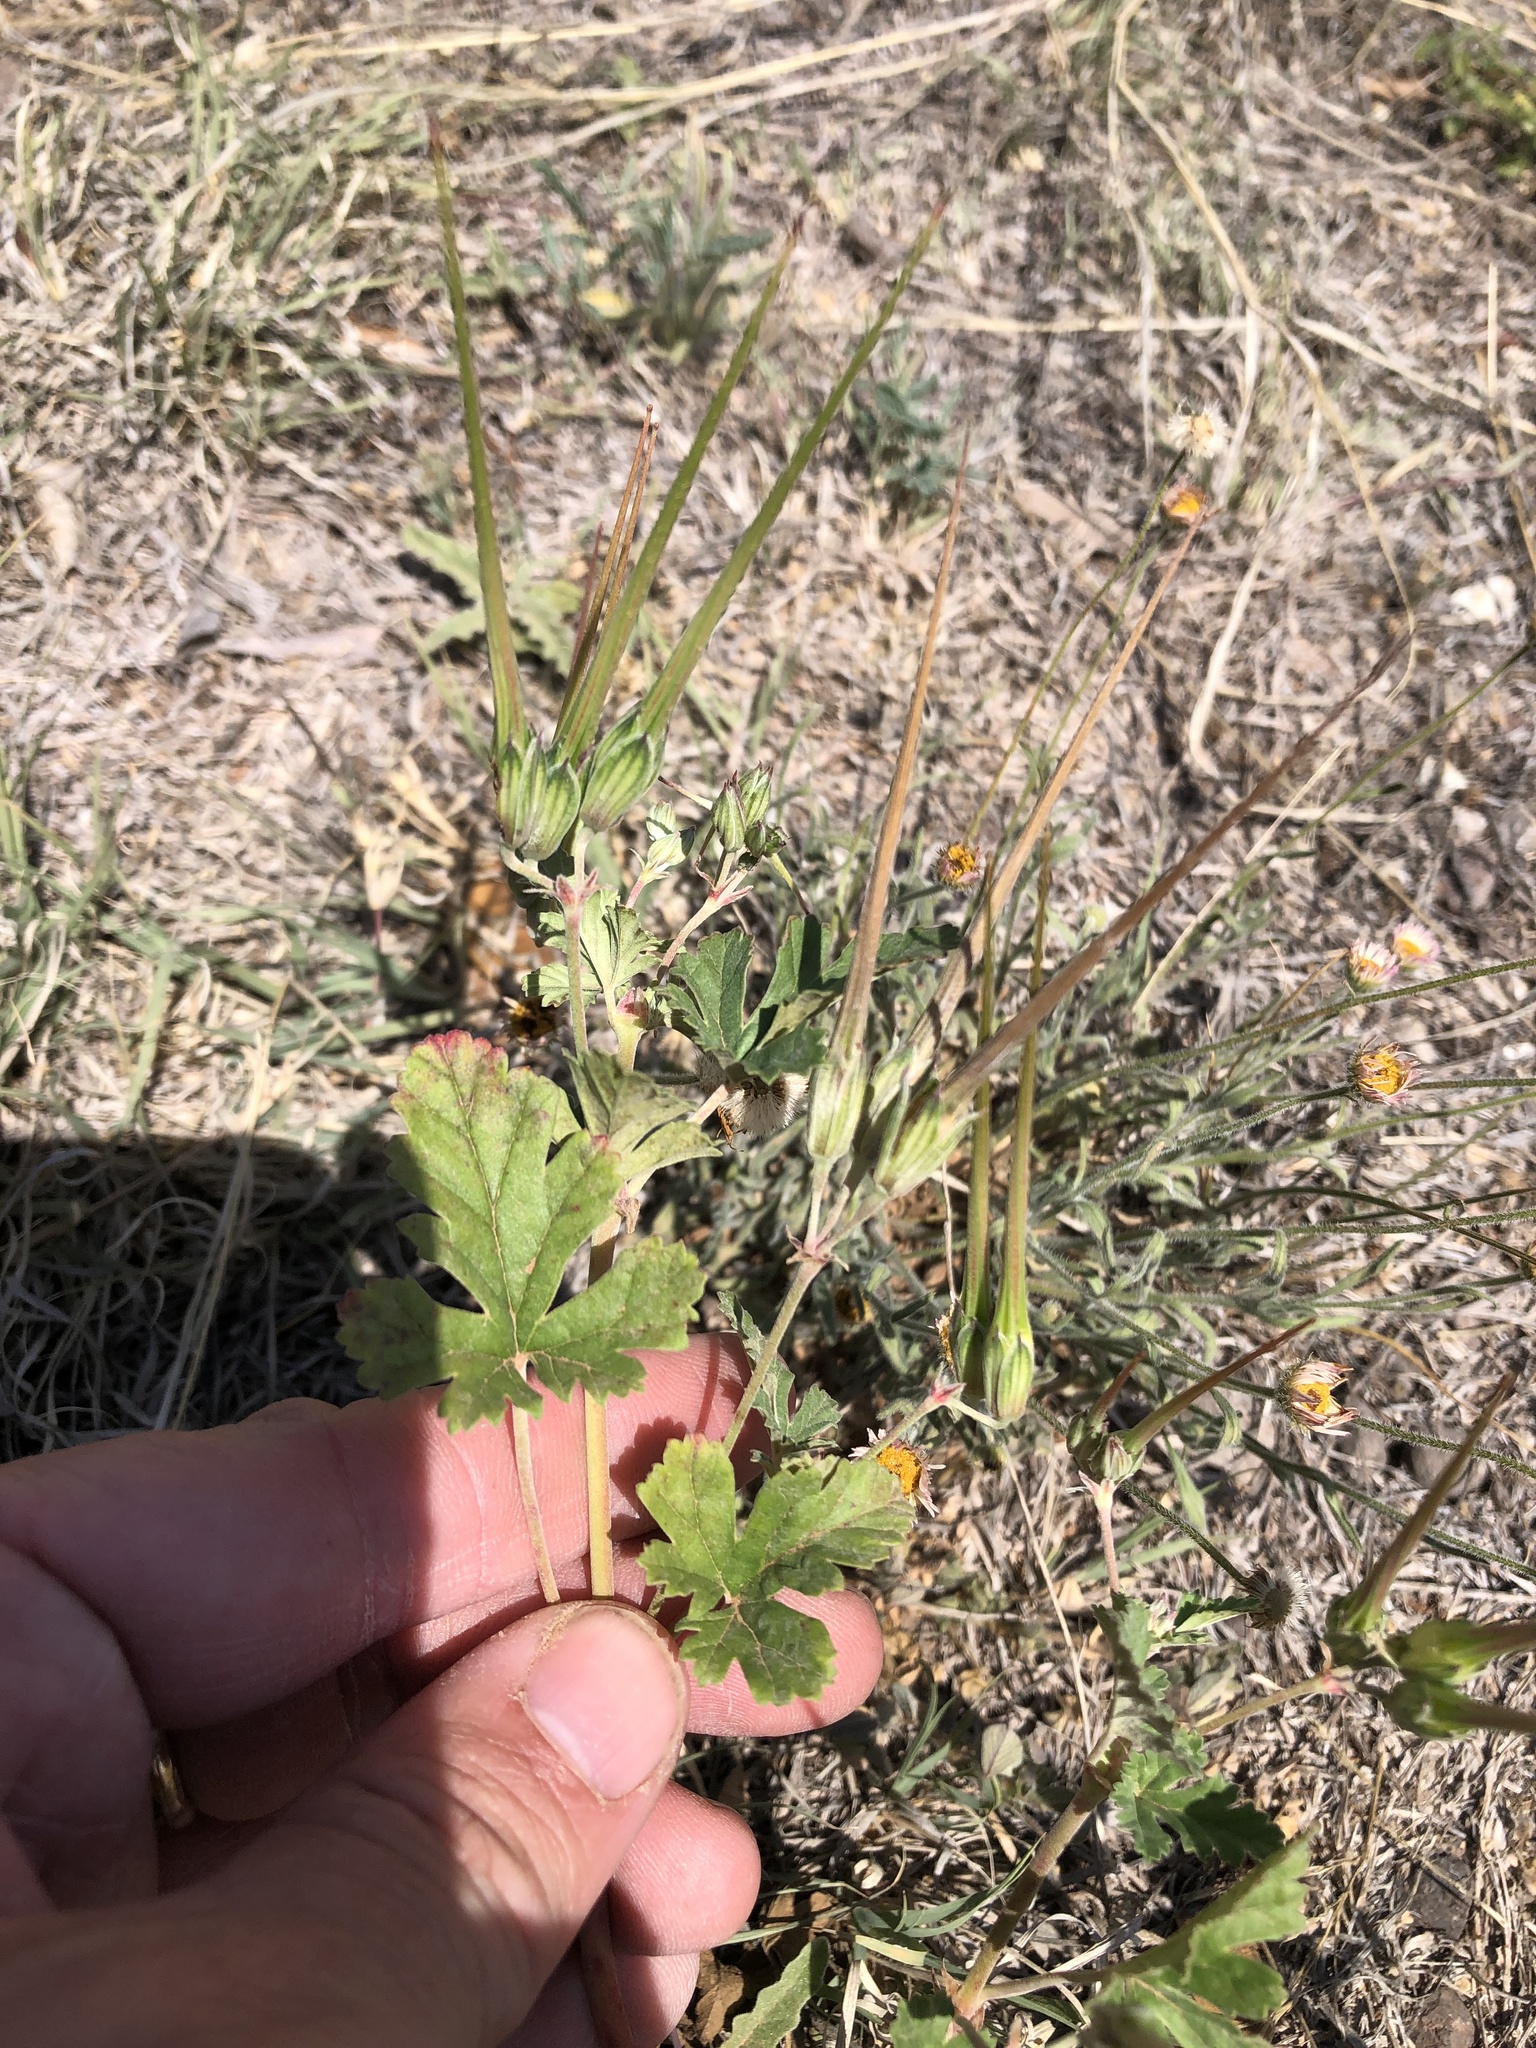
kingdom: Plantae
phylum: Tracheophyta
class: Magnoliopsida
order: Geraniales
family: Geraniaceae
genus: Erodium
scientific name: Erodium texanum
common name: Texas stork's-bill
